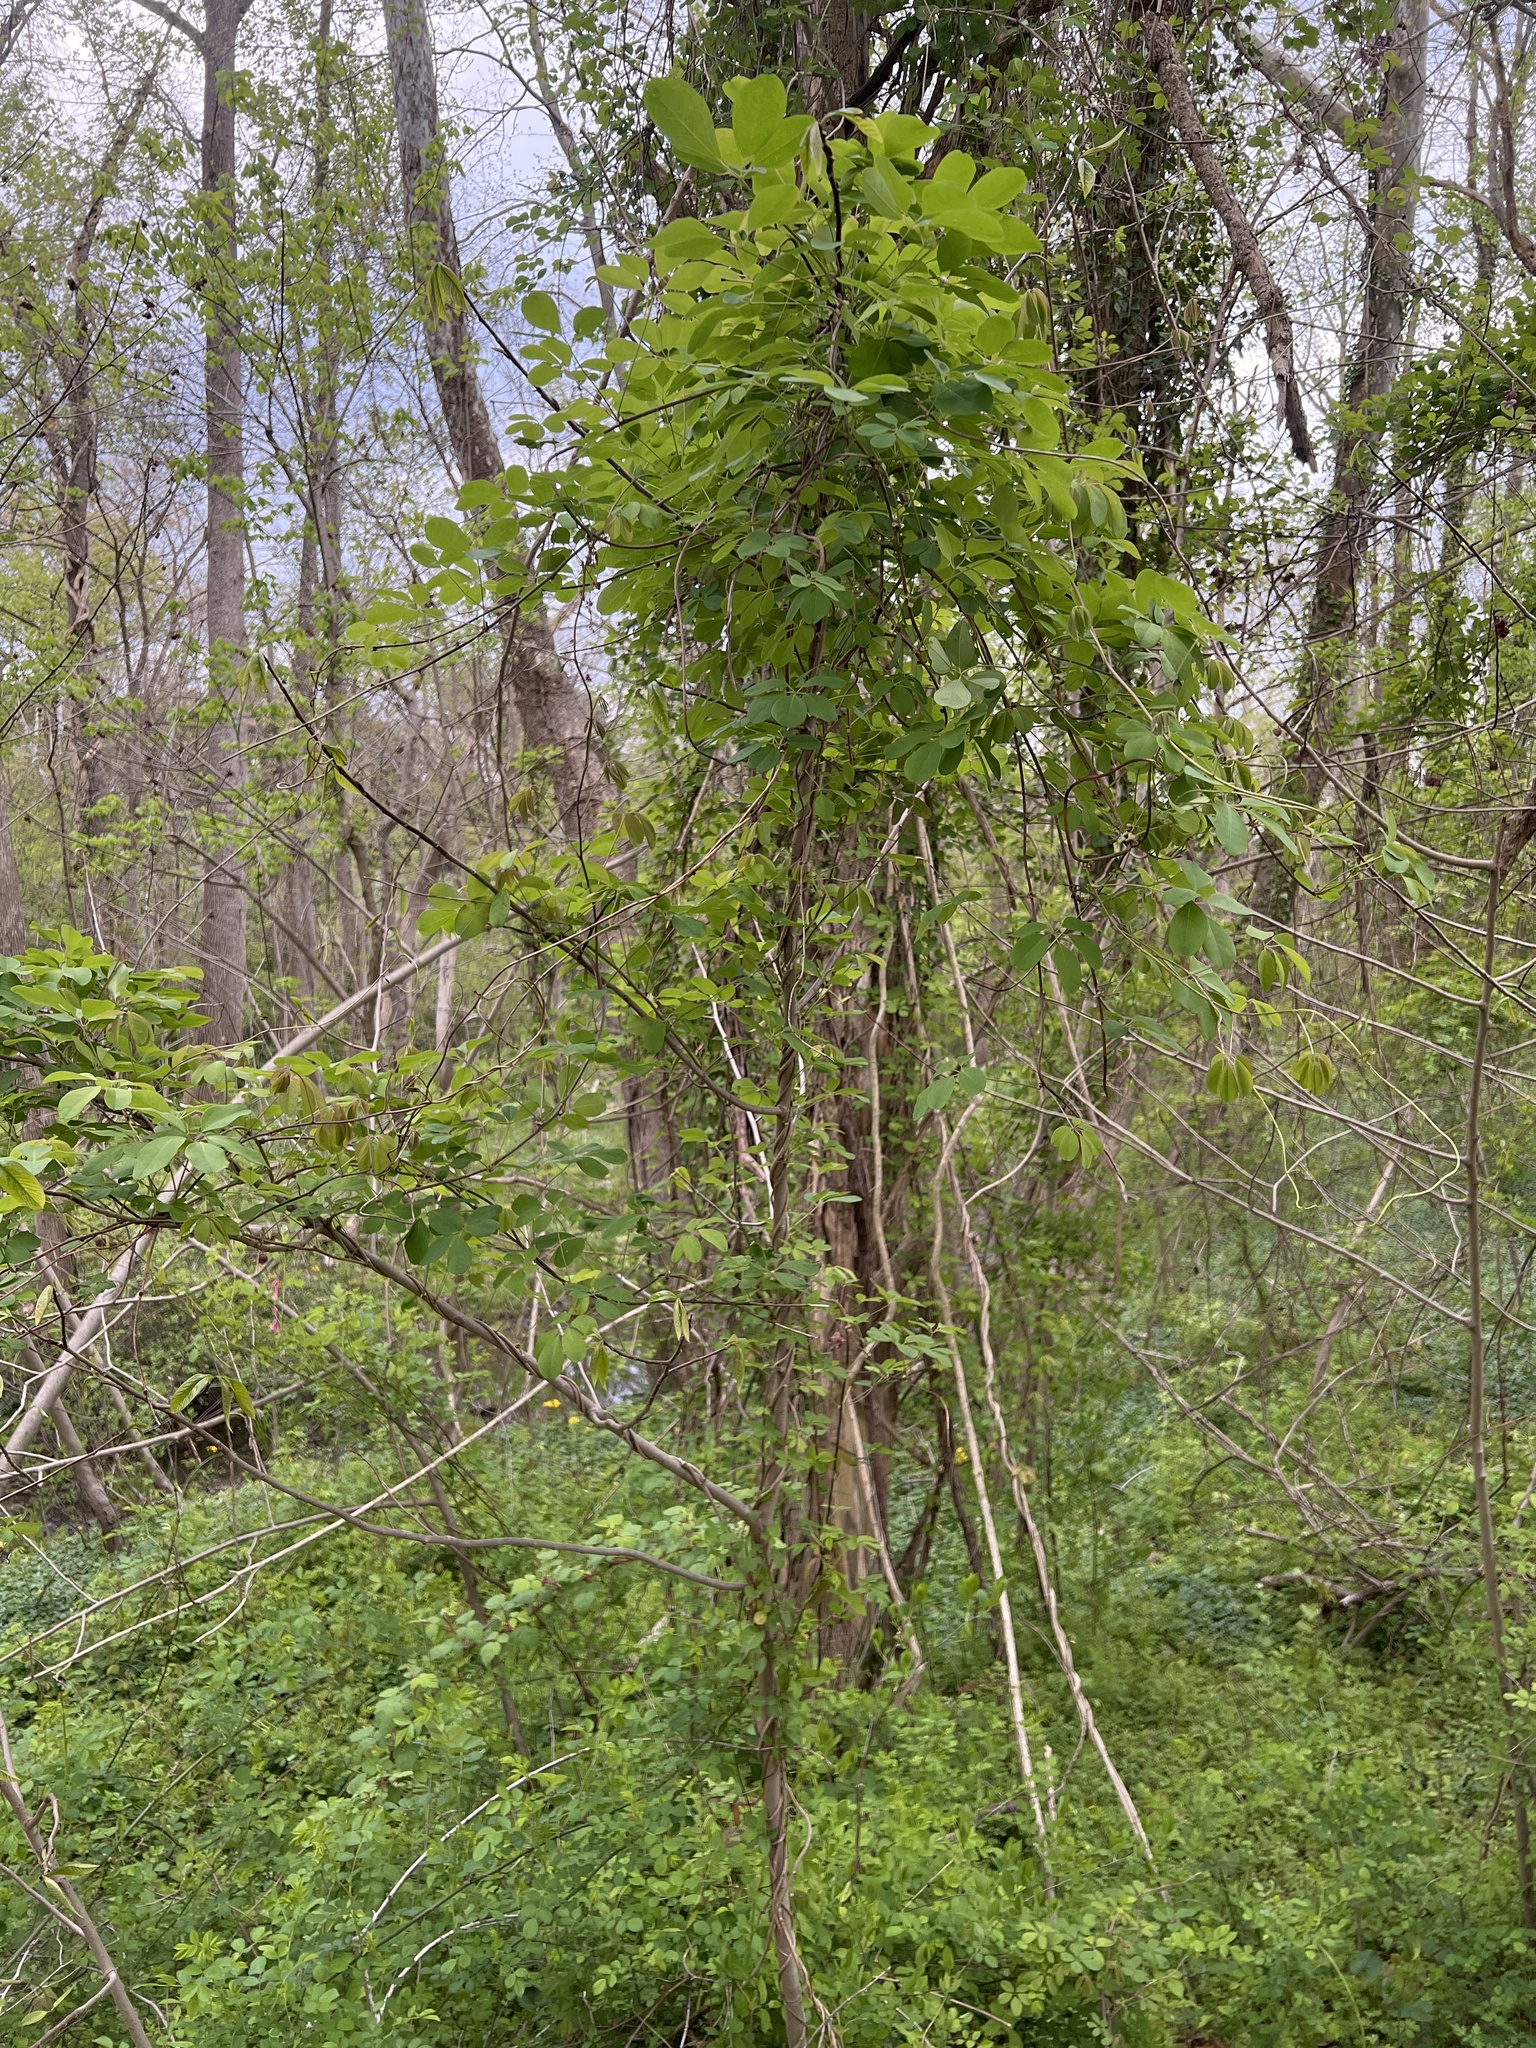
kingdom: Plantae
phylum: Tracheophyta
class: Magnoliopsida
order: Ranunculales
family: Lardizabalaceae
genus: Akebia
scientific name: Akebia quinata
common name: Five-leaf akebia
